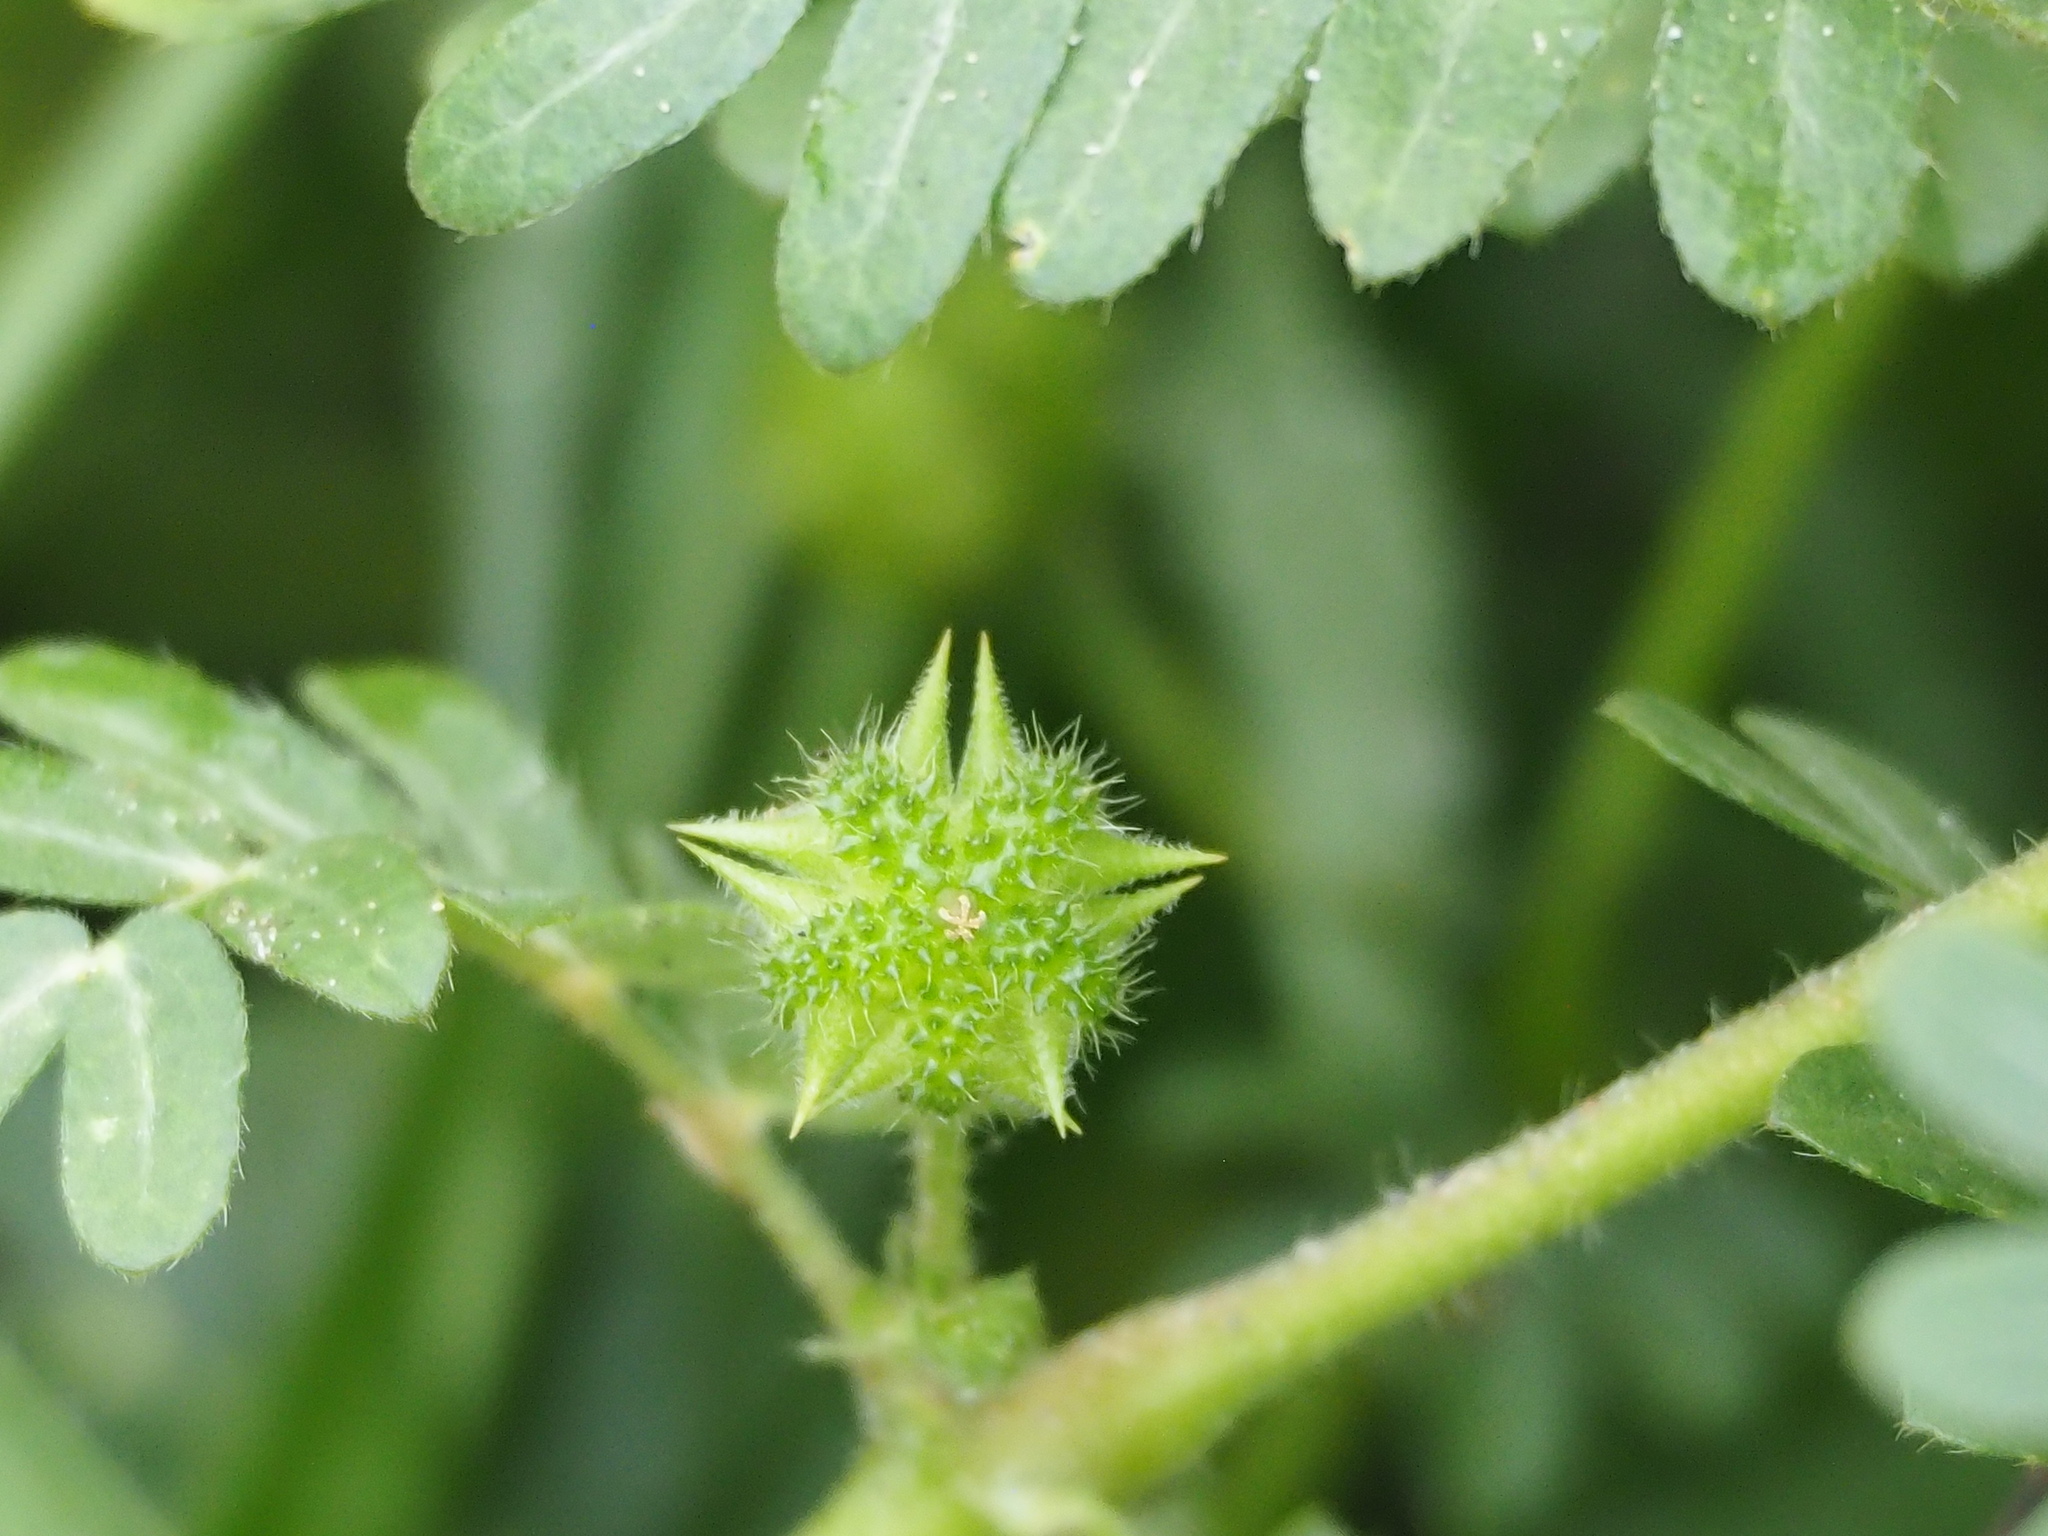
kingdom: Plantae
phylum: Tracheophyta
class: Magnoliopsida
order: Zygophyllales
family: Zygophyllaceae
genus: Tribulus
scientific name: Tribulus cistoides
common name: Jamaican feverplant
